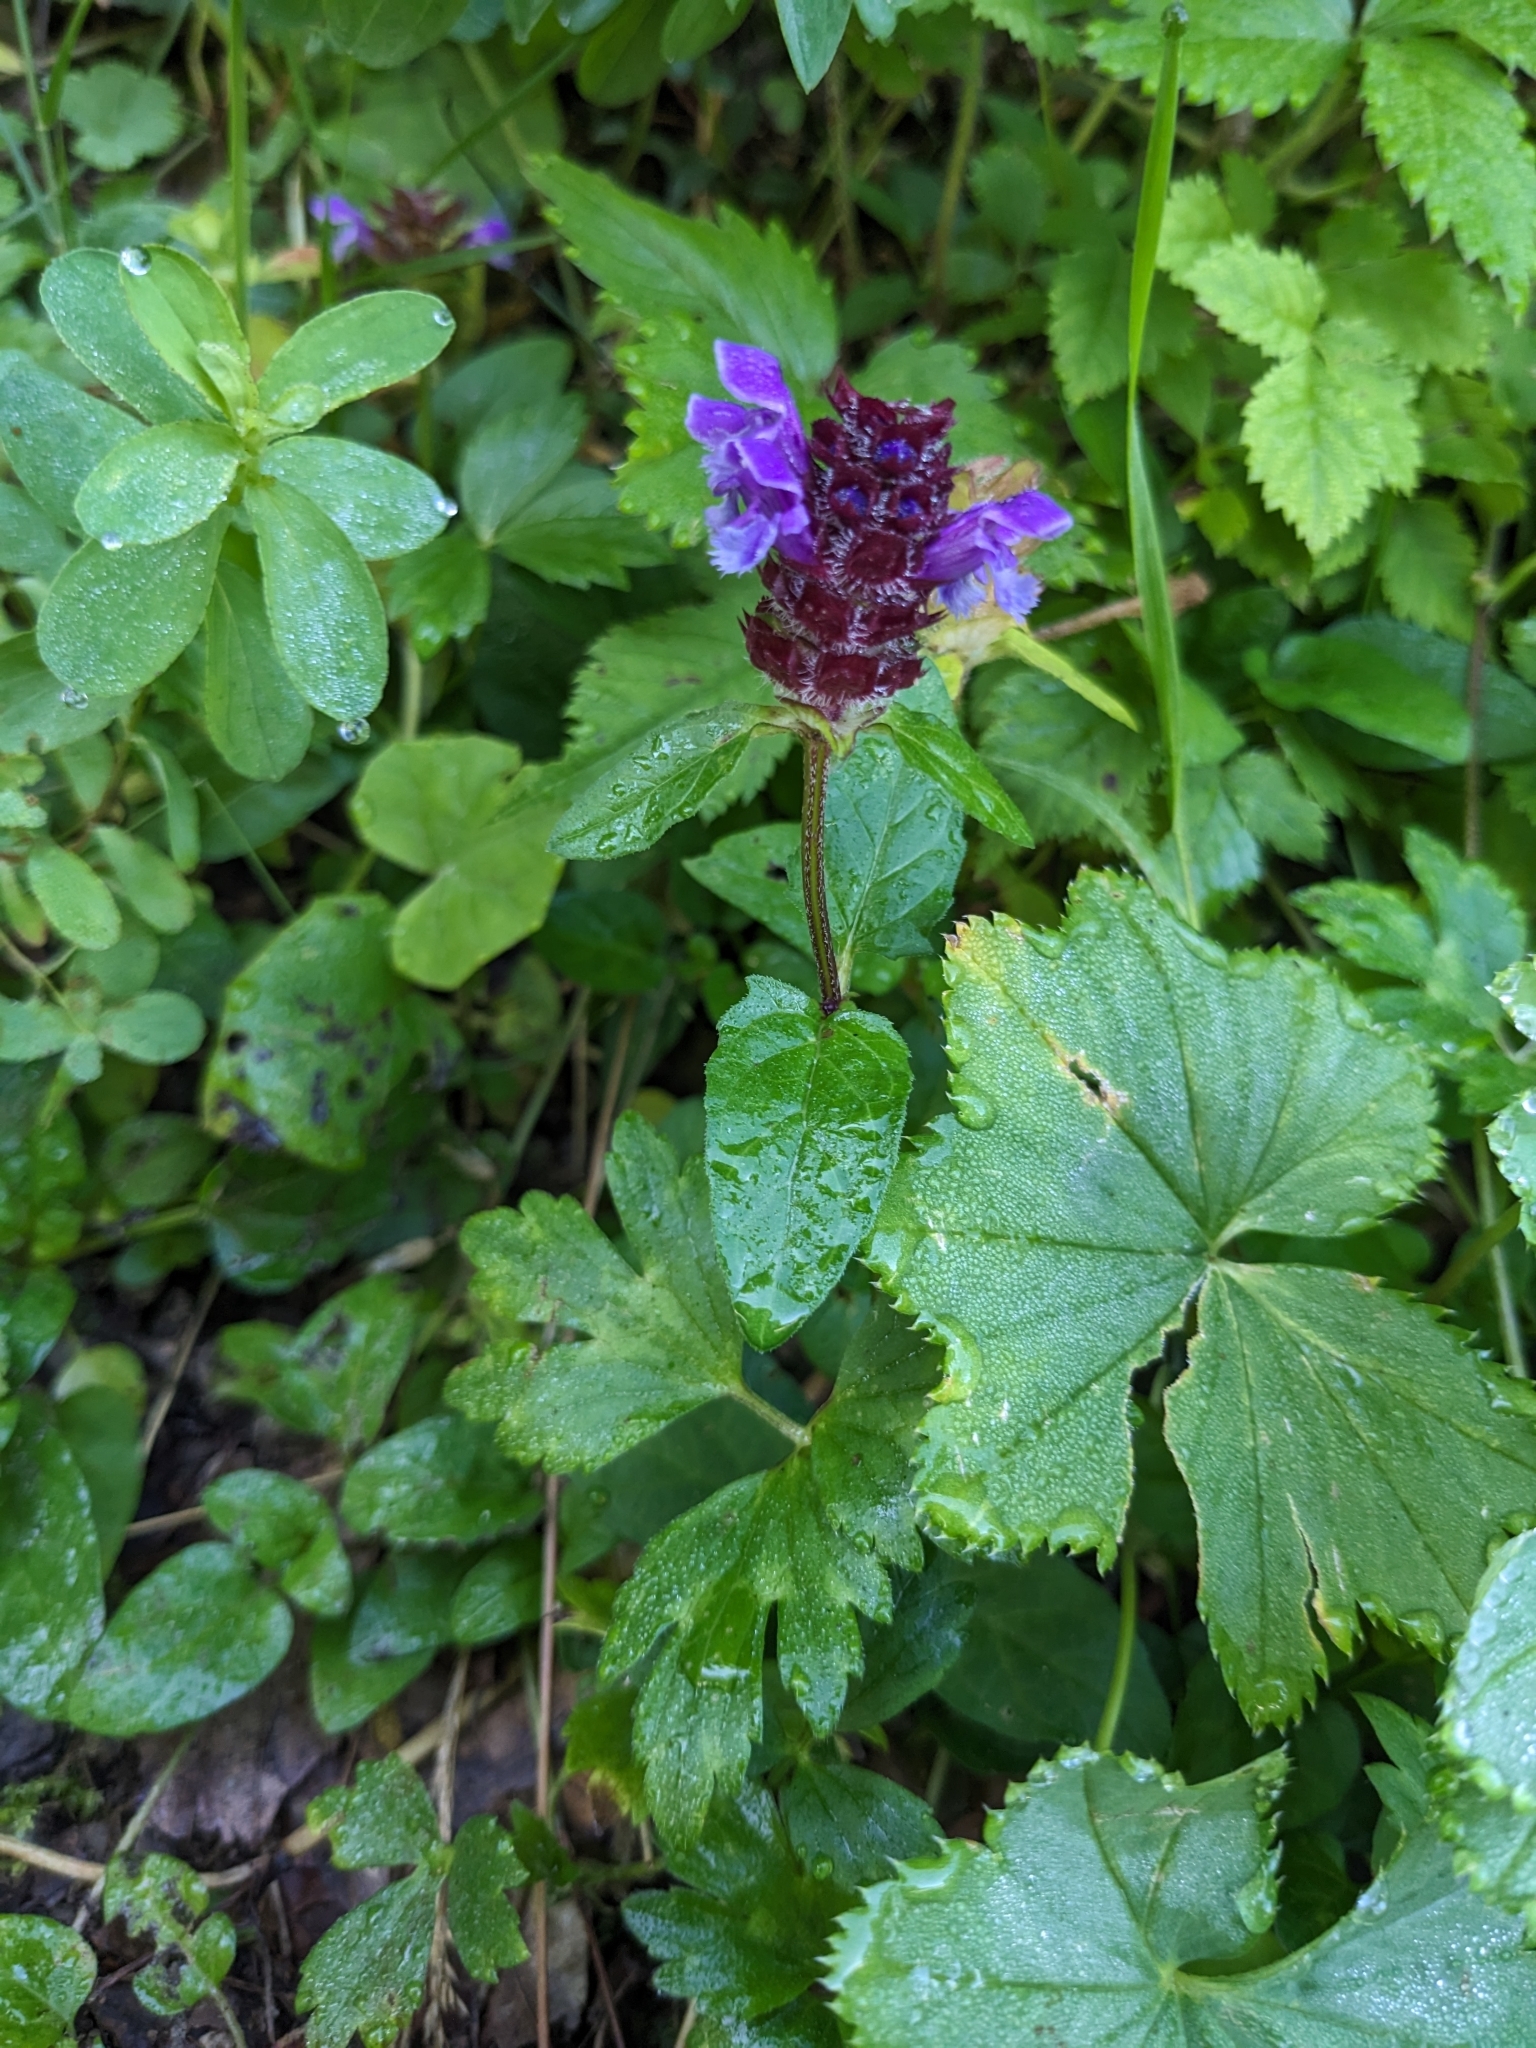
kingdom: Plantae
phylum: Tracheophyta
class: Magnoliopsida
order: Lamiales
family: Lamiaceae
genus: Prunella
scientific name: Prunella vulgaris
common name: Heal-all
